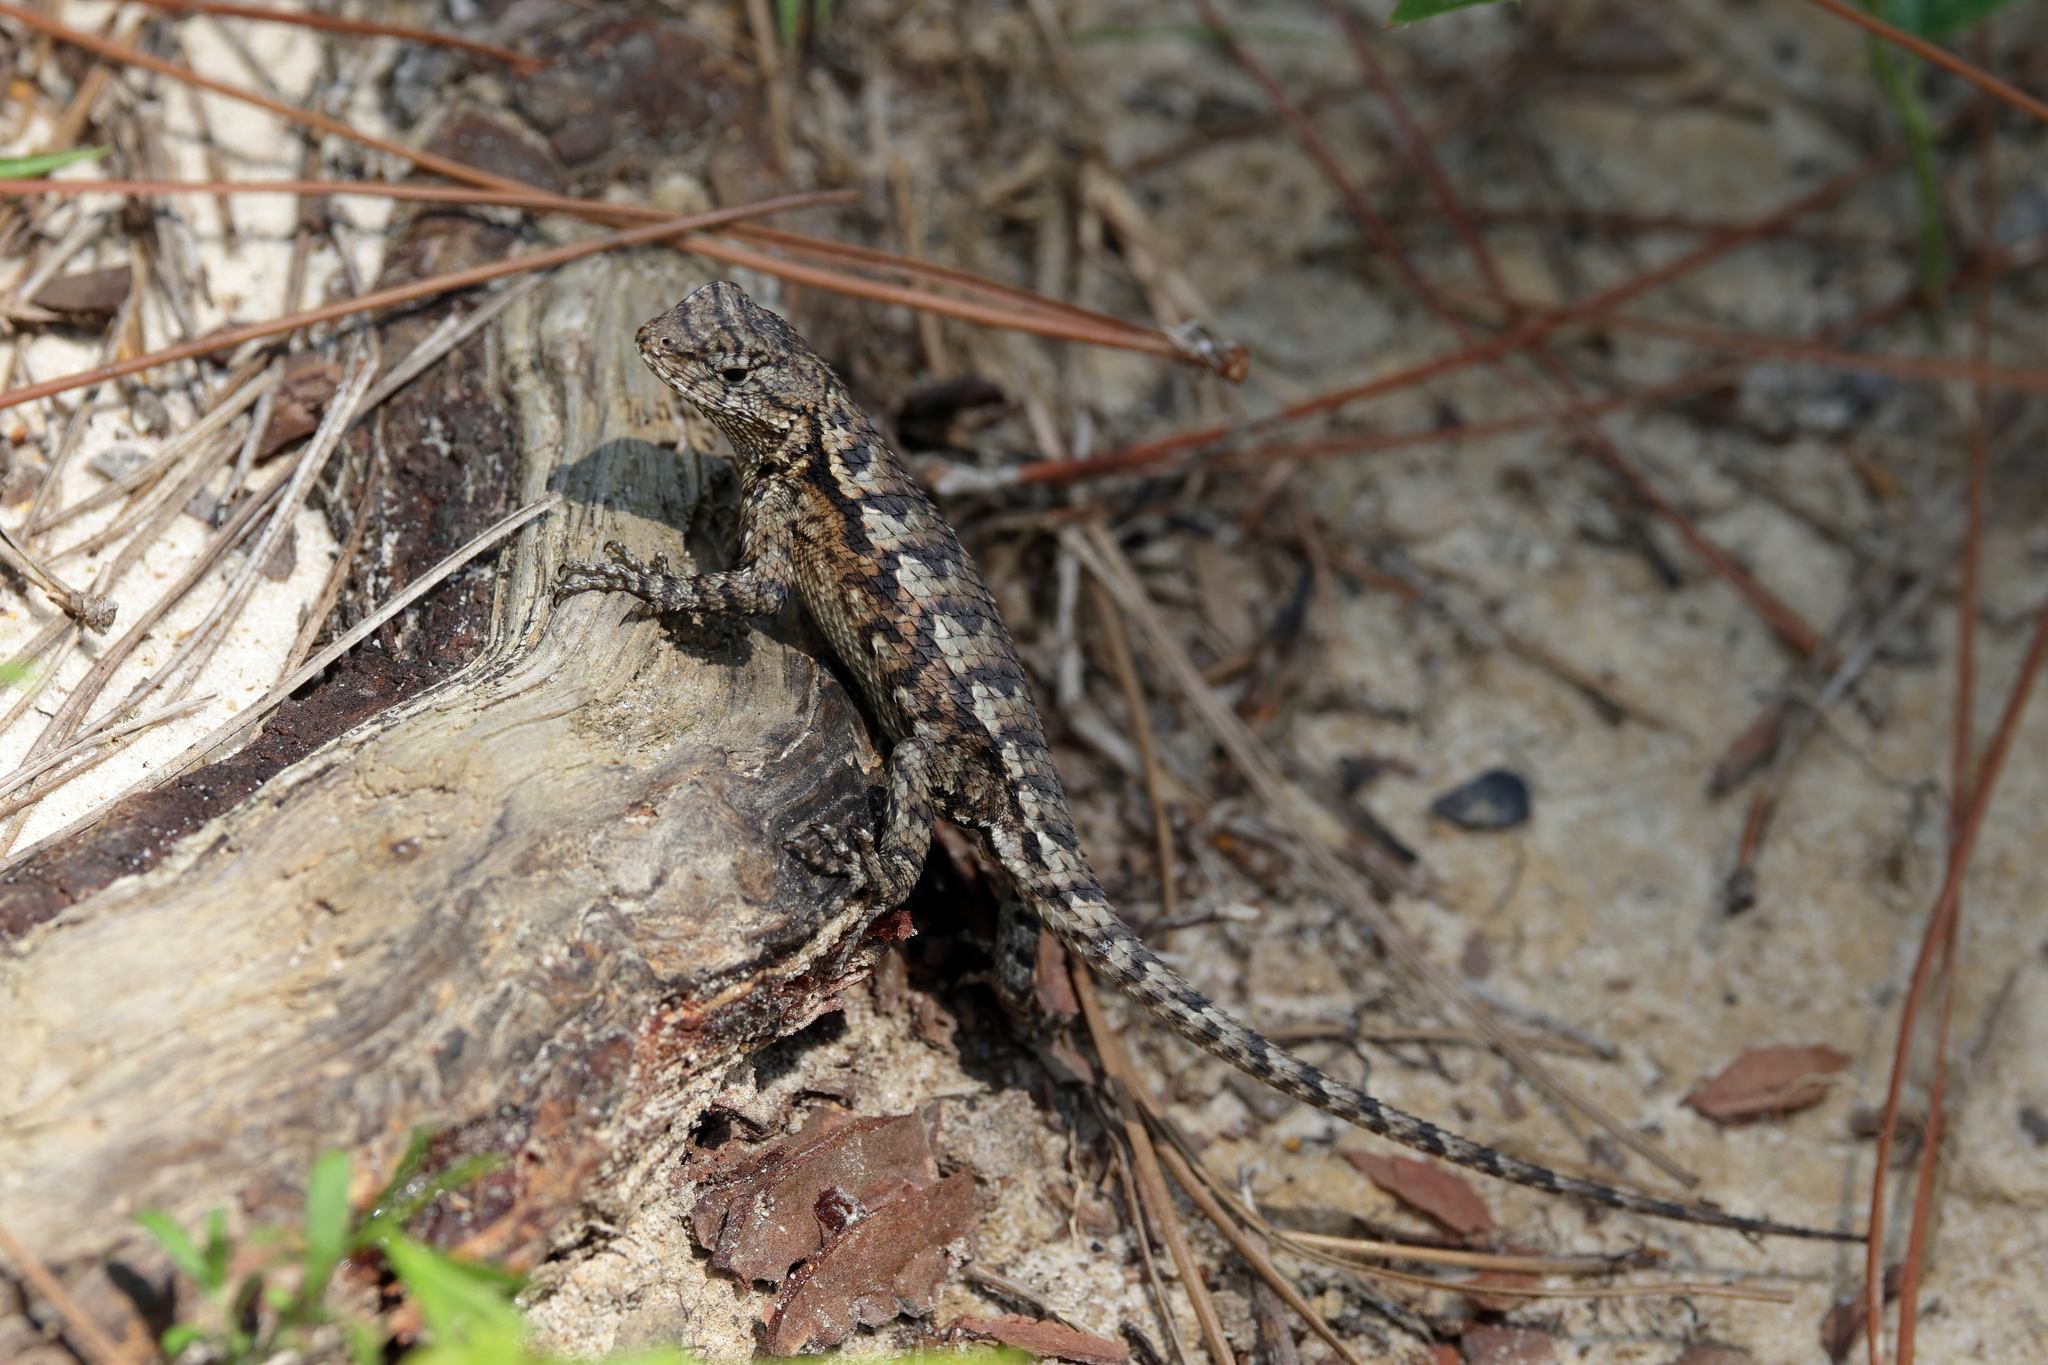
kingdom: Animalia
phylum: Chordata
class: Squamata
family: Phrynosomatidae
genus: Sceloporus
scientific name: Sceloporus undulatus
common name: Eastern fence lizard
